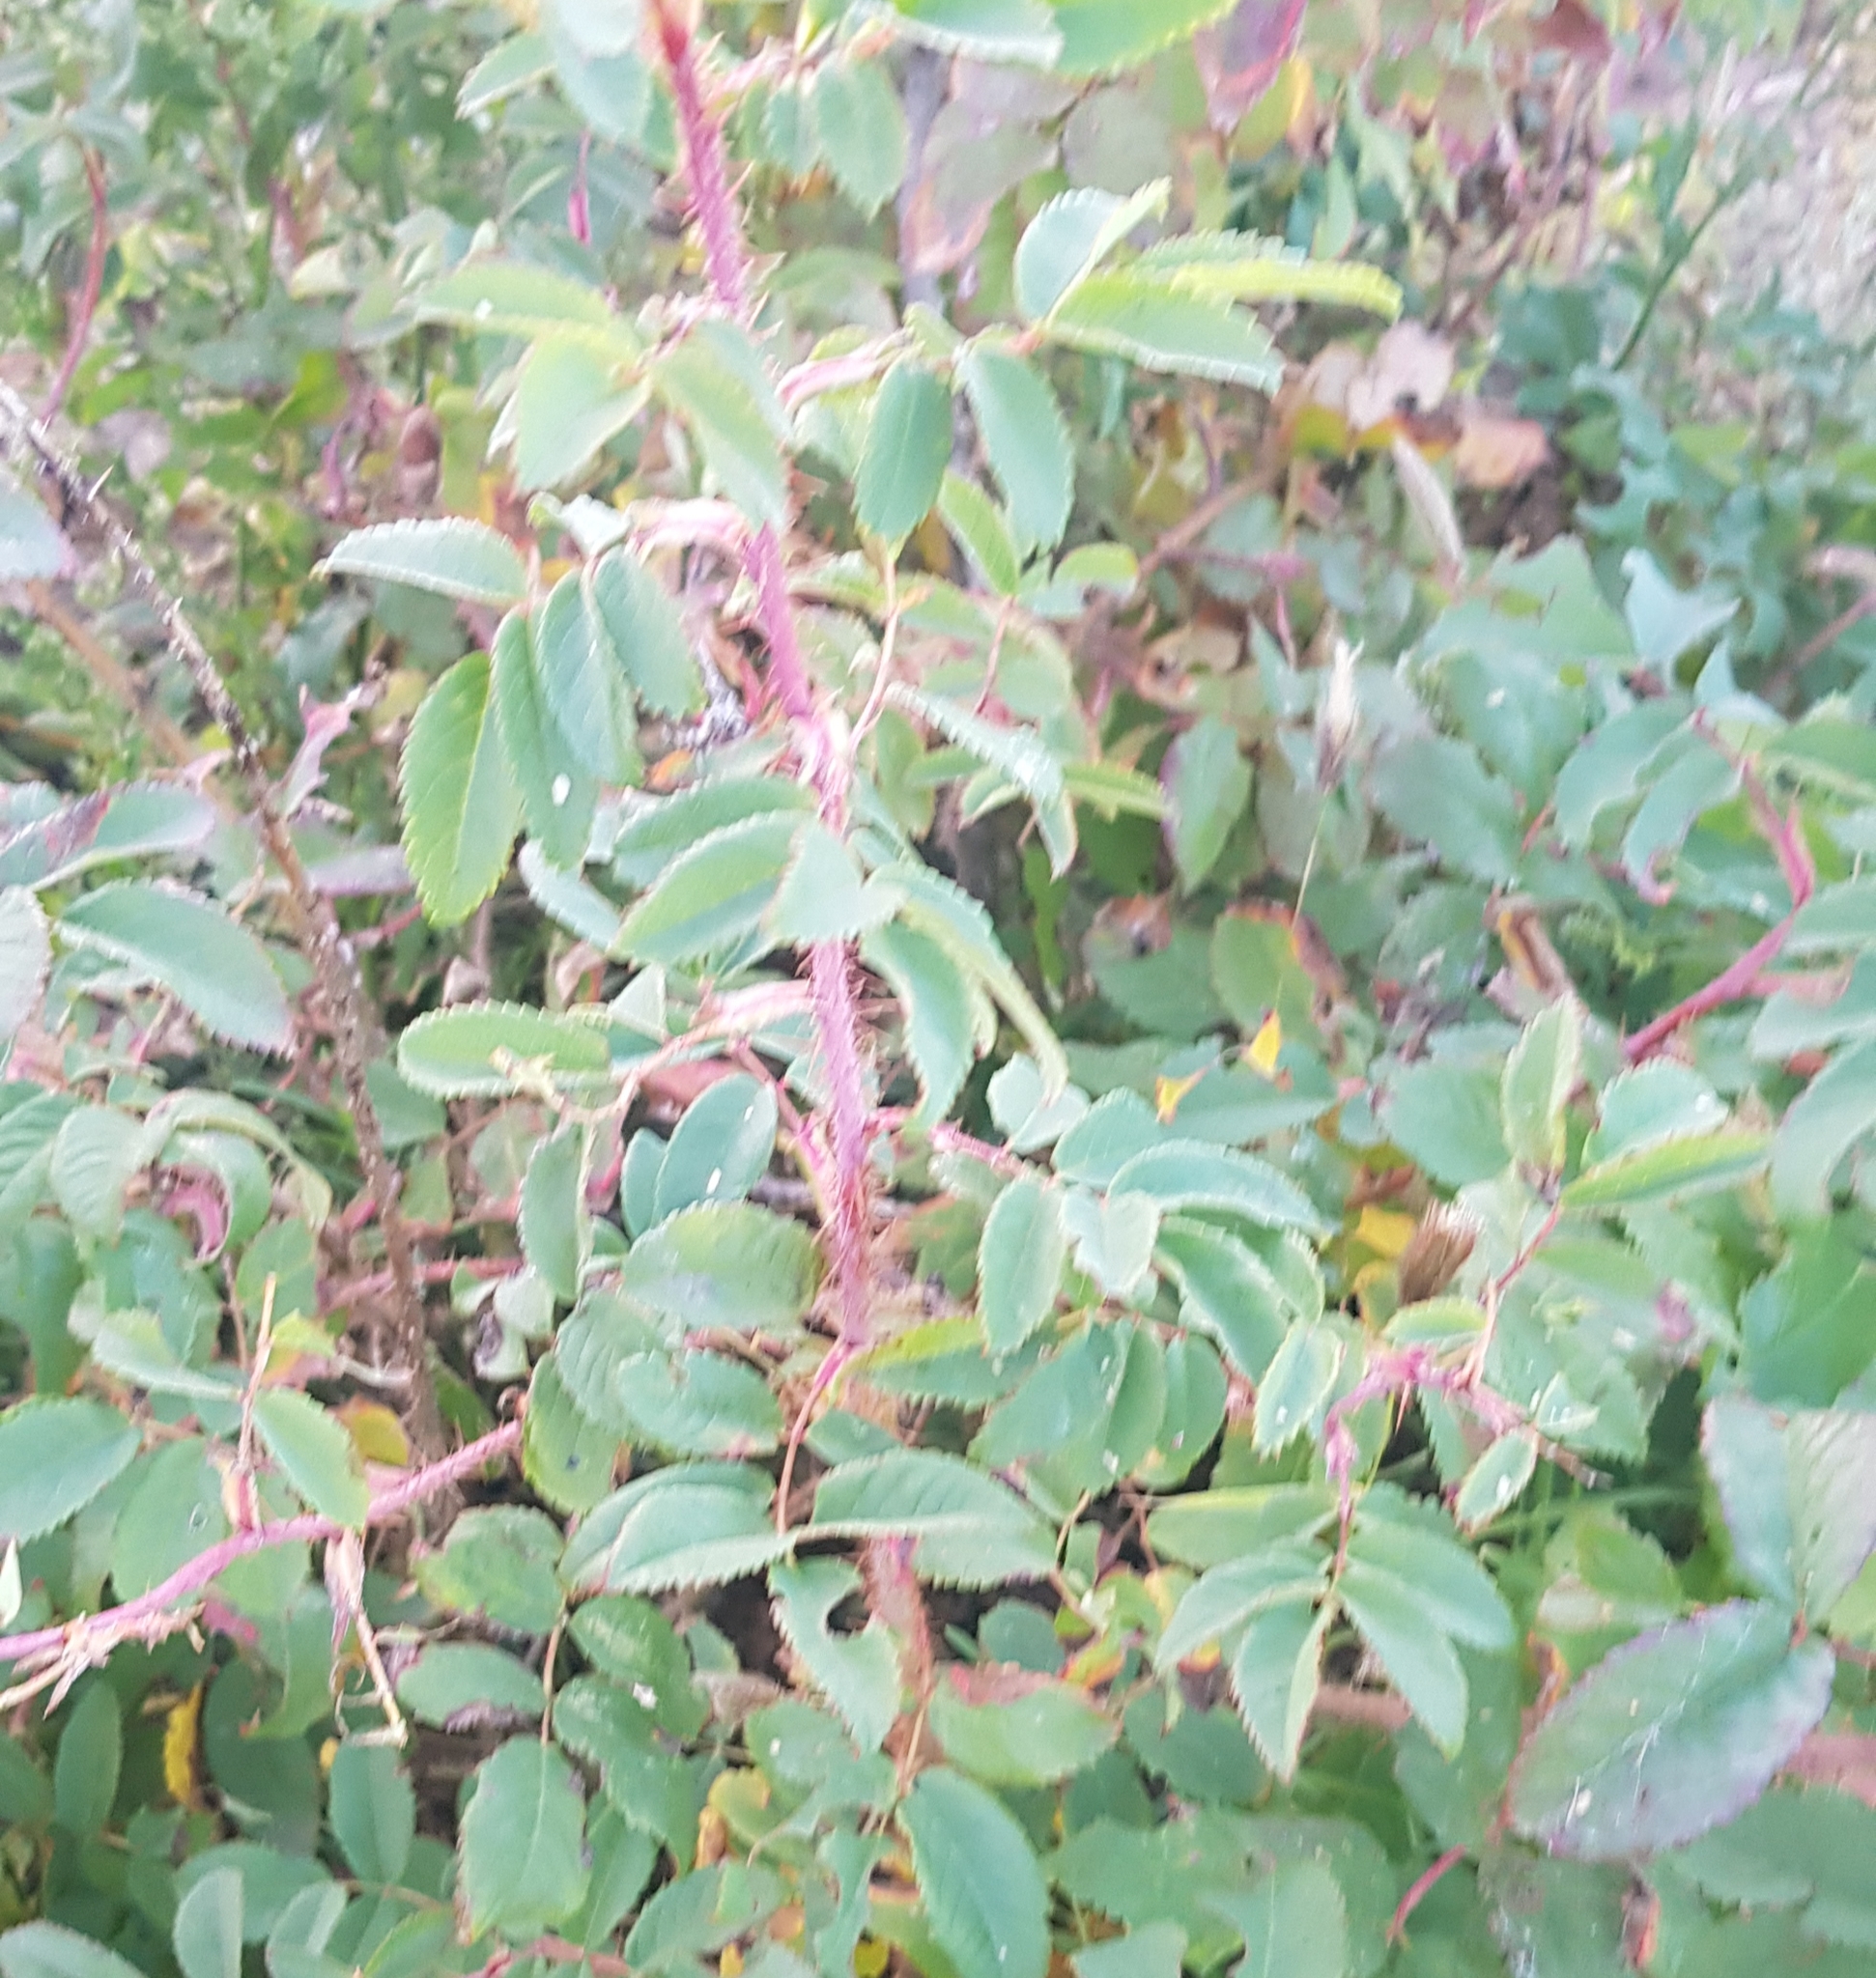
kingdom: Plantae
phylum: Tracheophyta
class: Magnoliopsida
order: Rosales
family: Rosaceae
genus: Rosa
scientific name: Rosa davurica
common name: Amur rose
